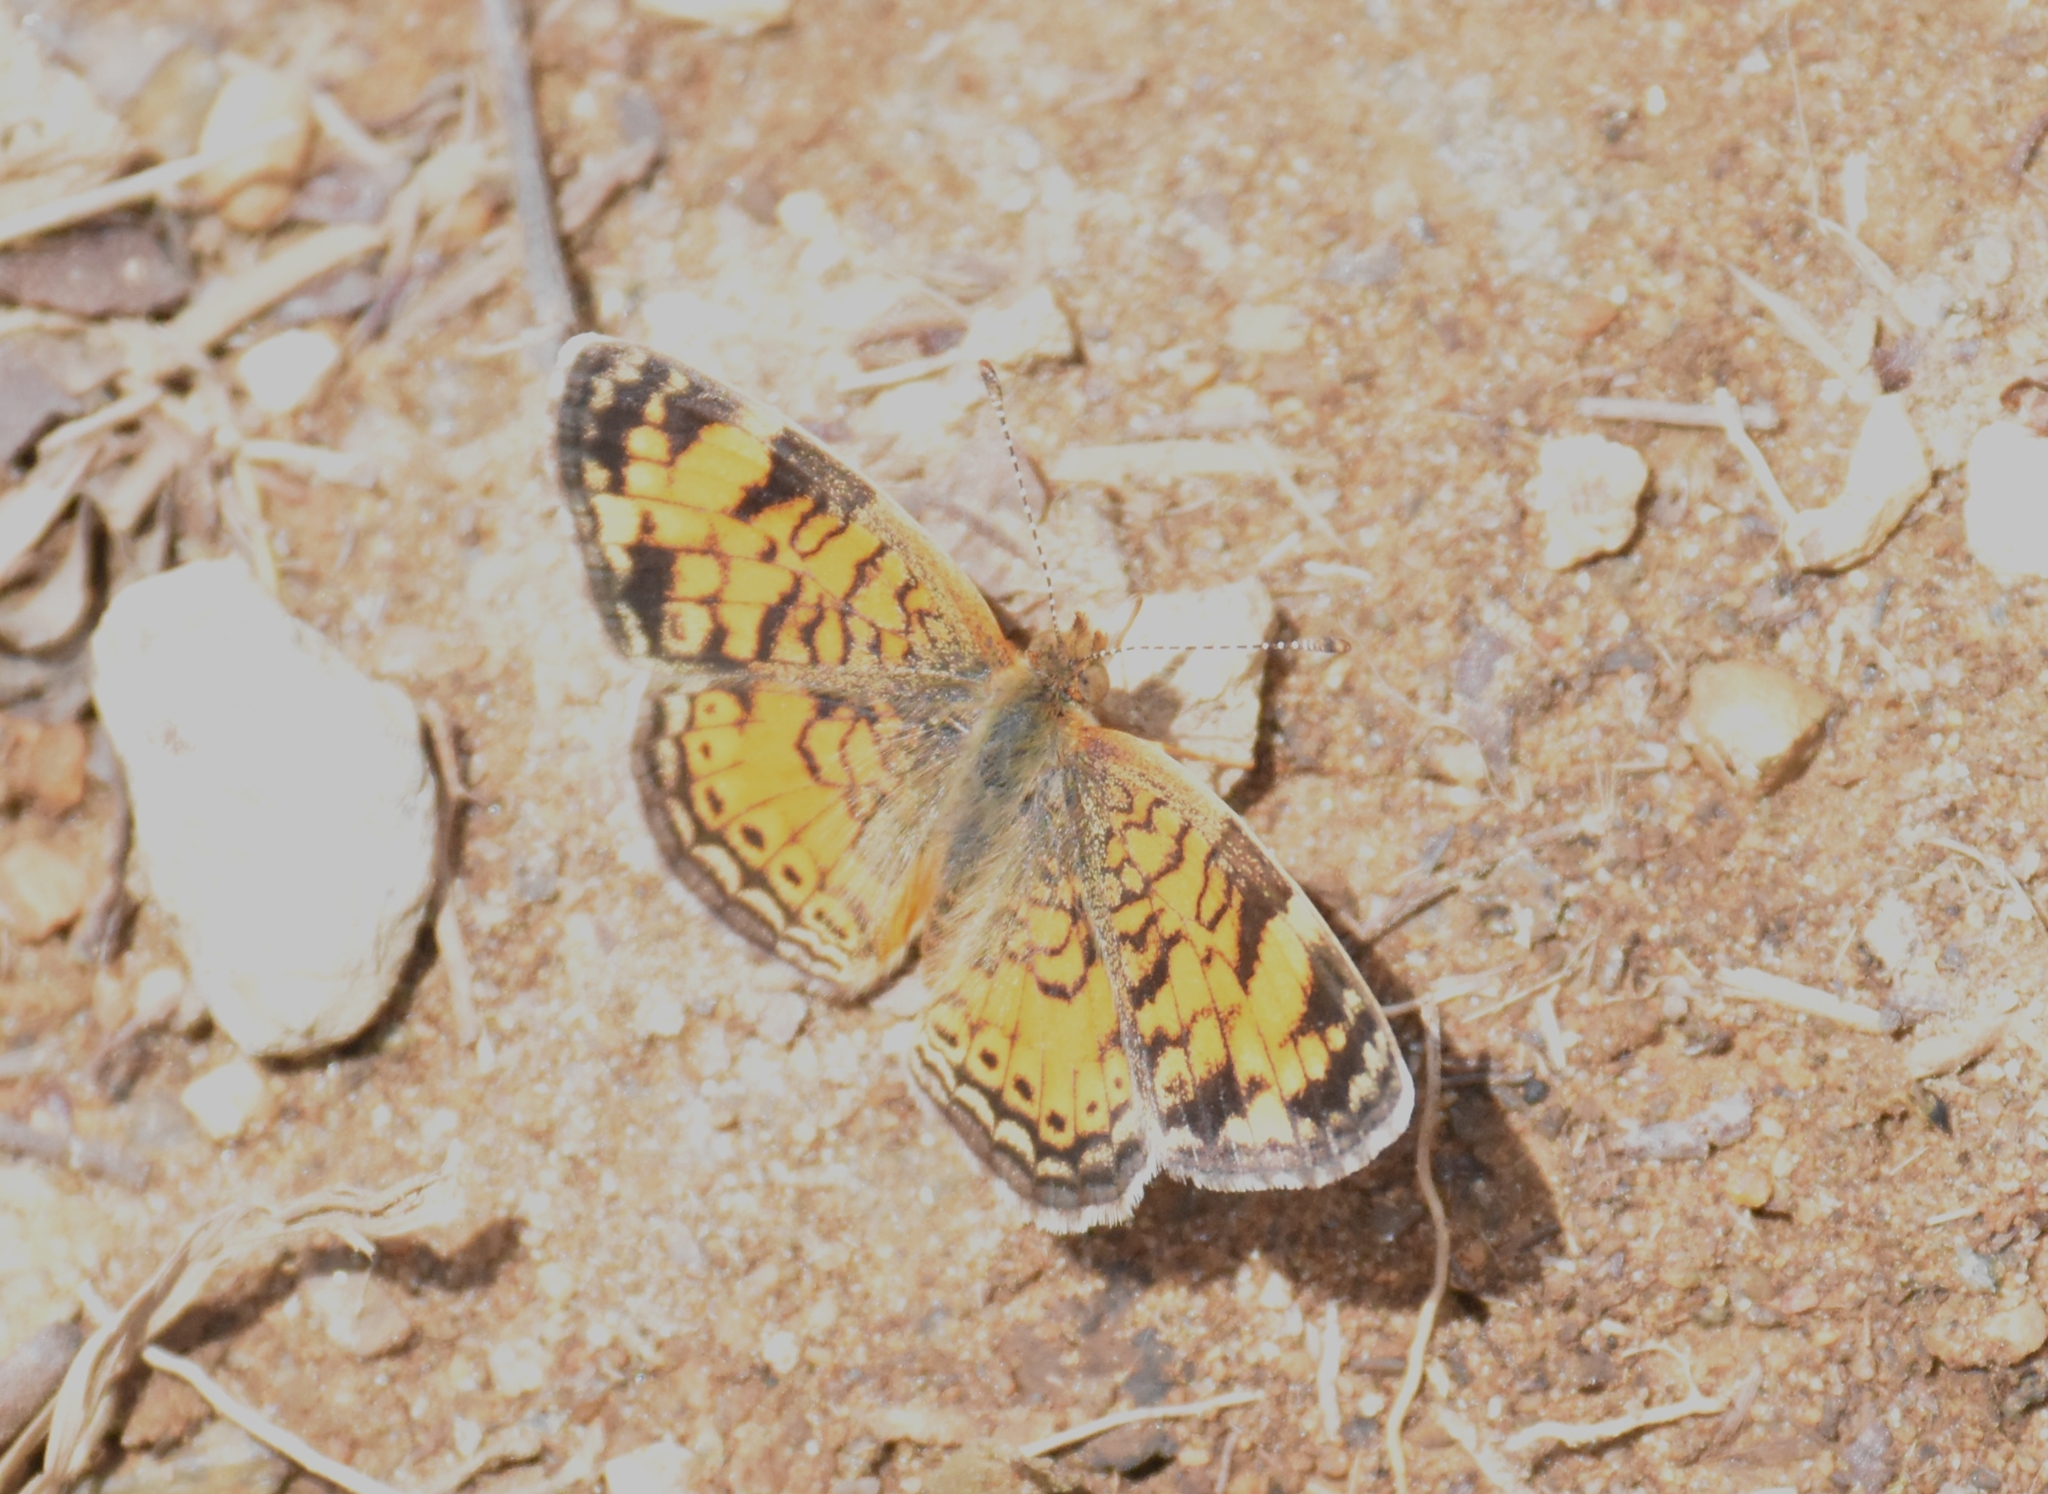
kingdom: Animalia
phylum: Arthropoda
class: Insecta
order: Lepidoptera
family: Nymphalidae
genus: Phyciodes
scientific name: Phyciodes tharos
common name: Pearl crescent
